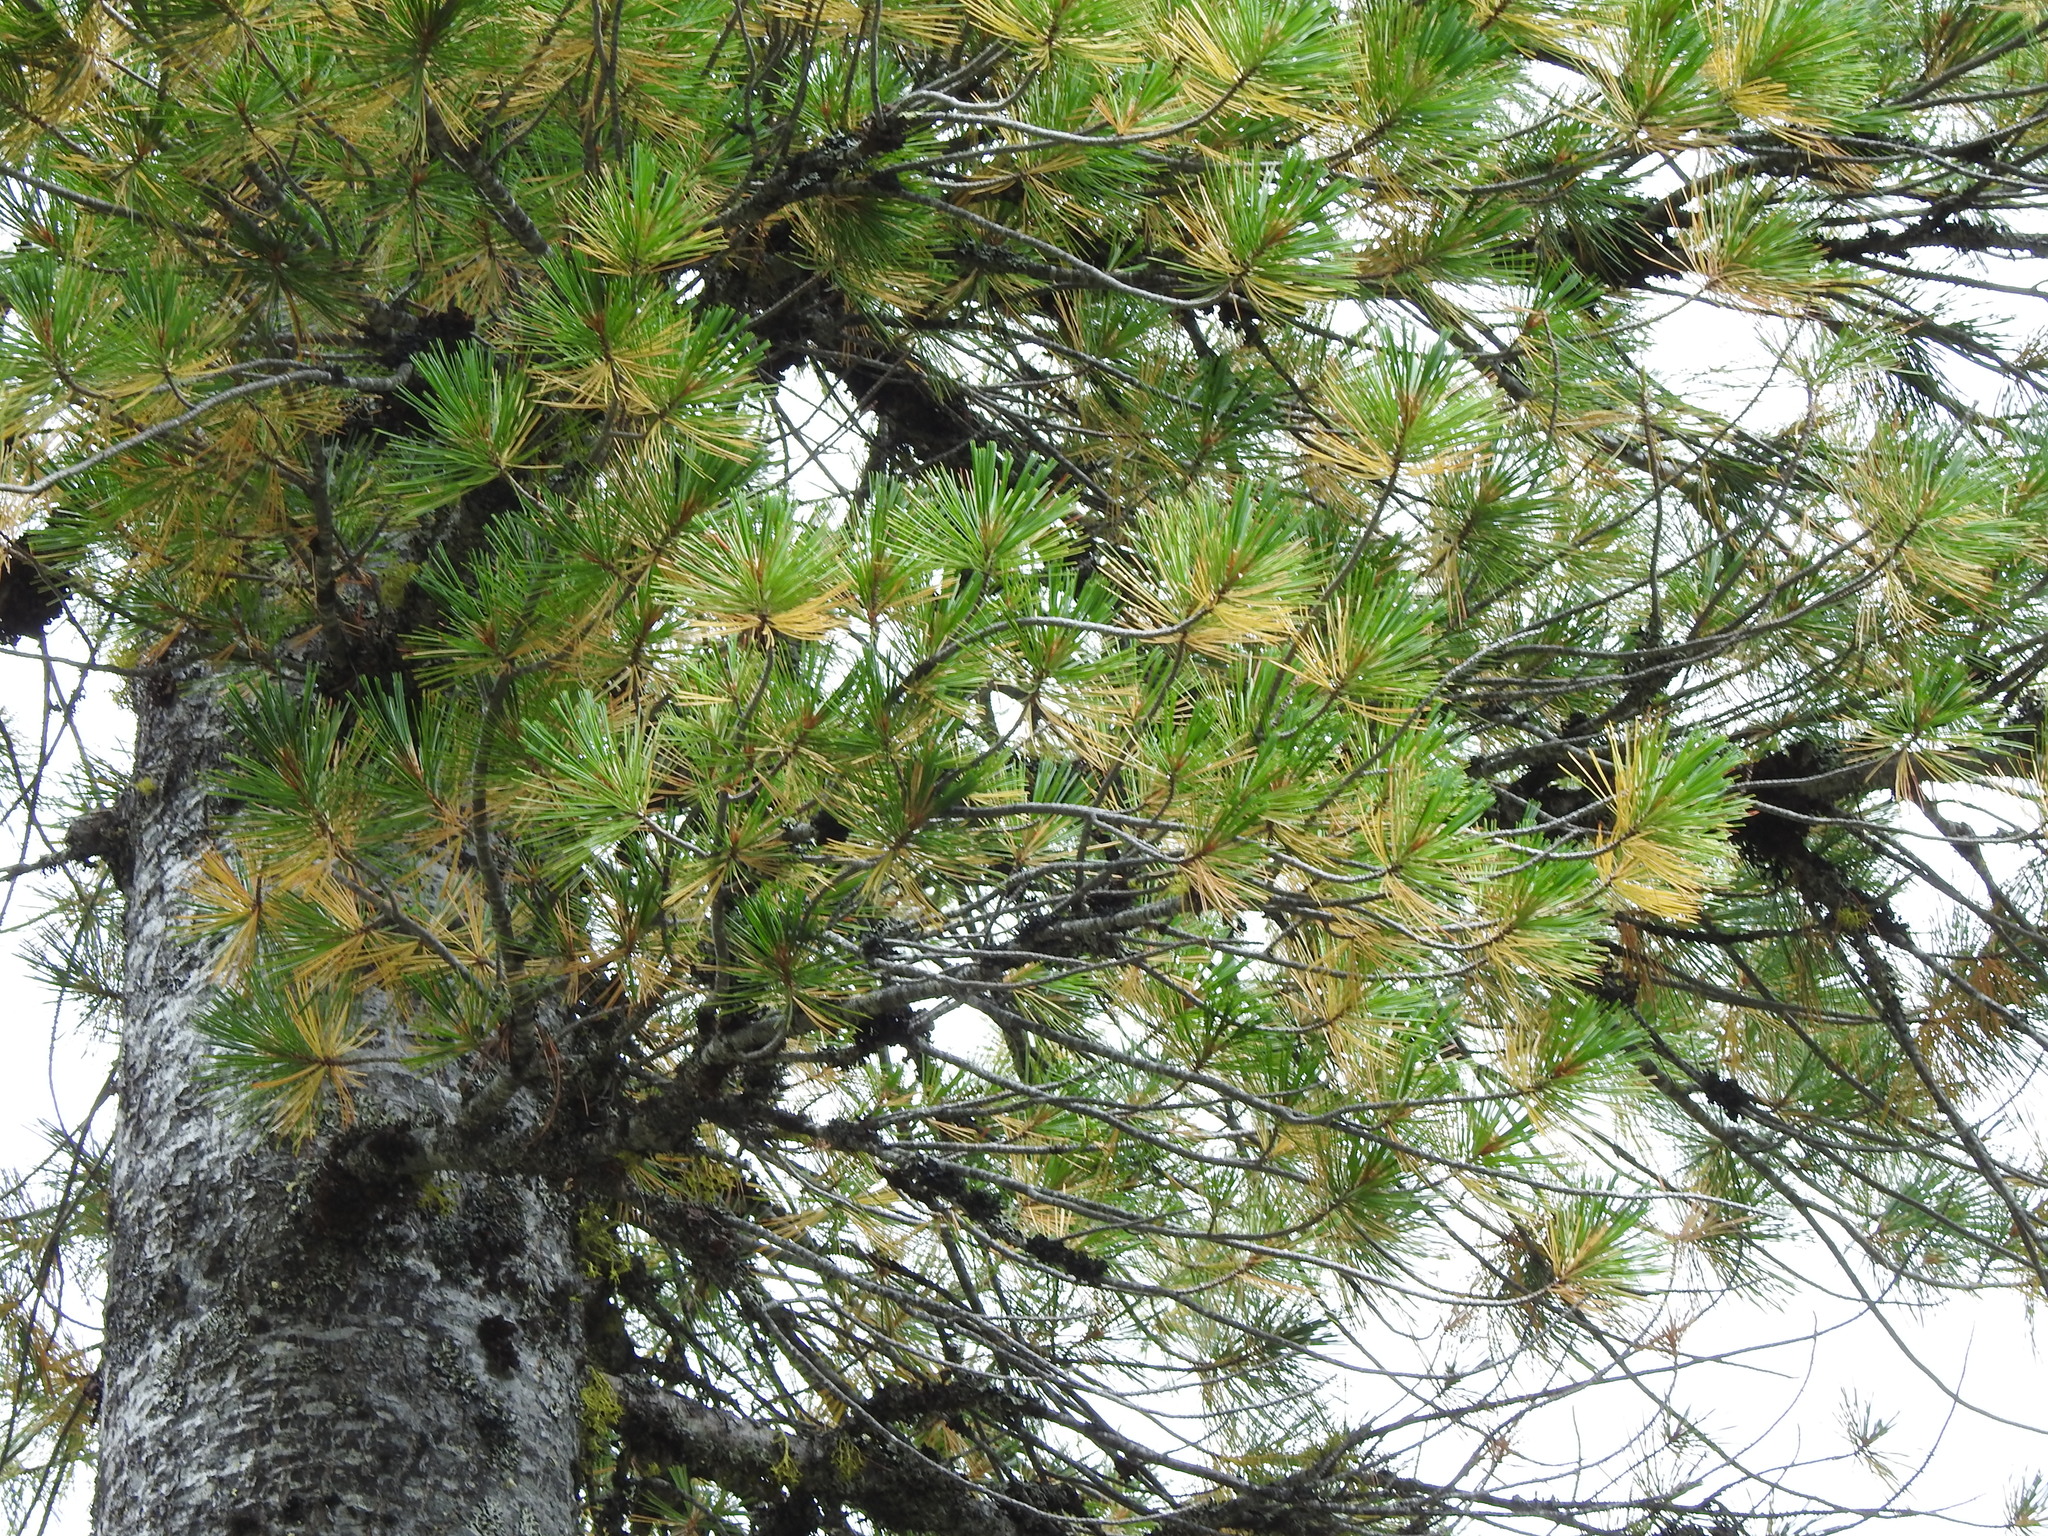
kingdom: Plantae
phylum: Tracheophyta
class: Pinopsida
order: Pinales
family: Pinaceae
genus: Pinus
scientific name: Pinus monticola
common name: Western white pine
